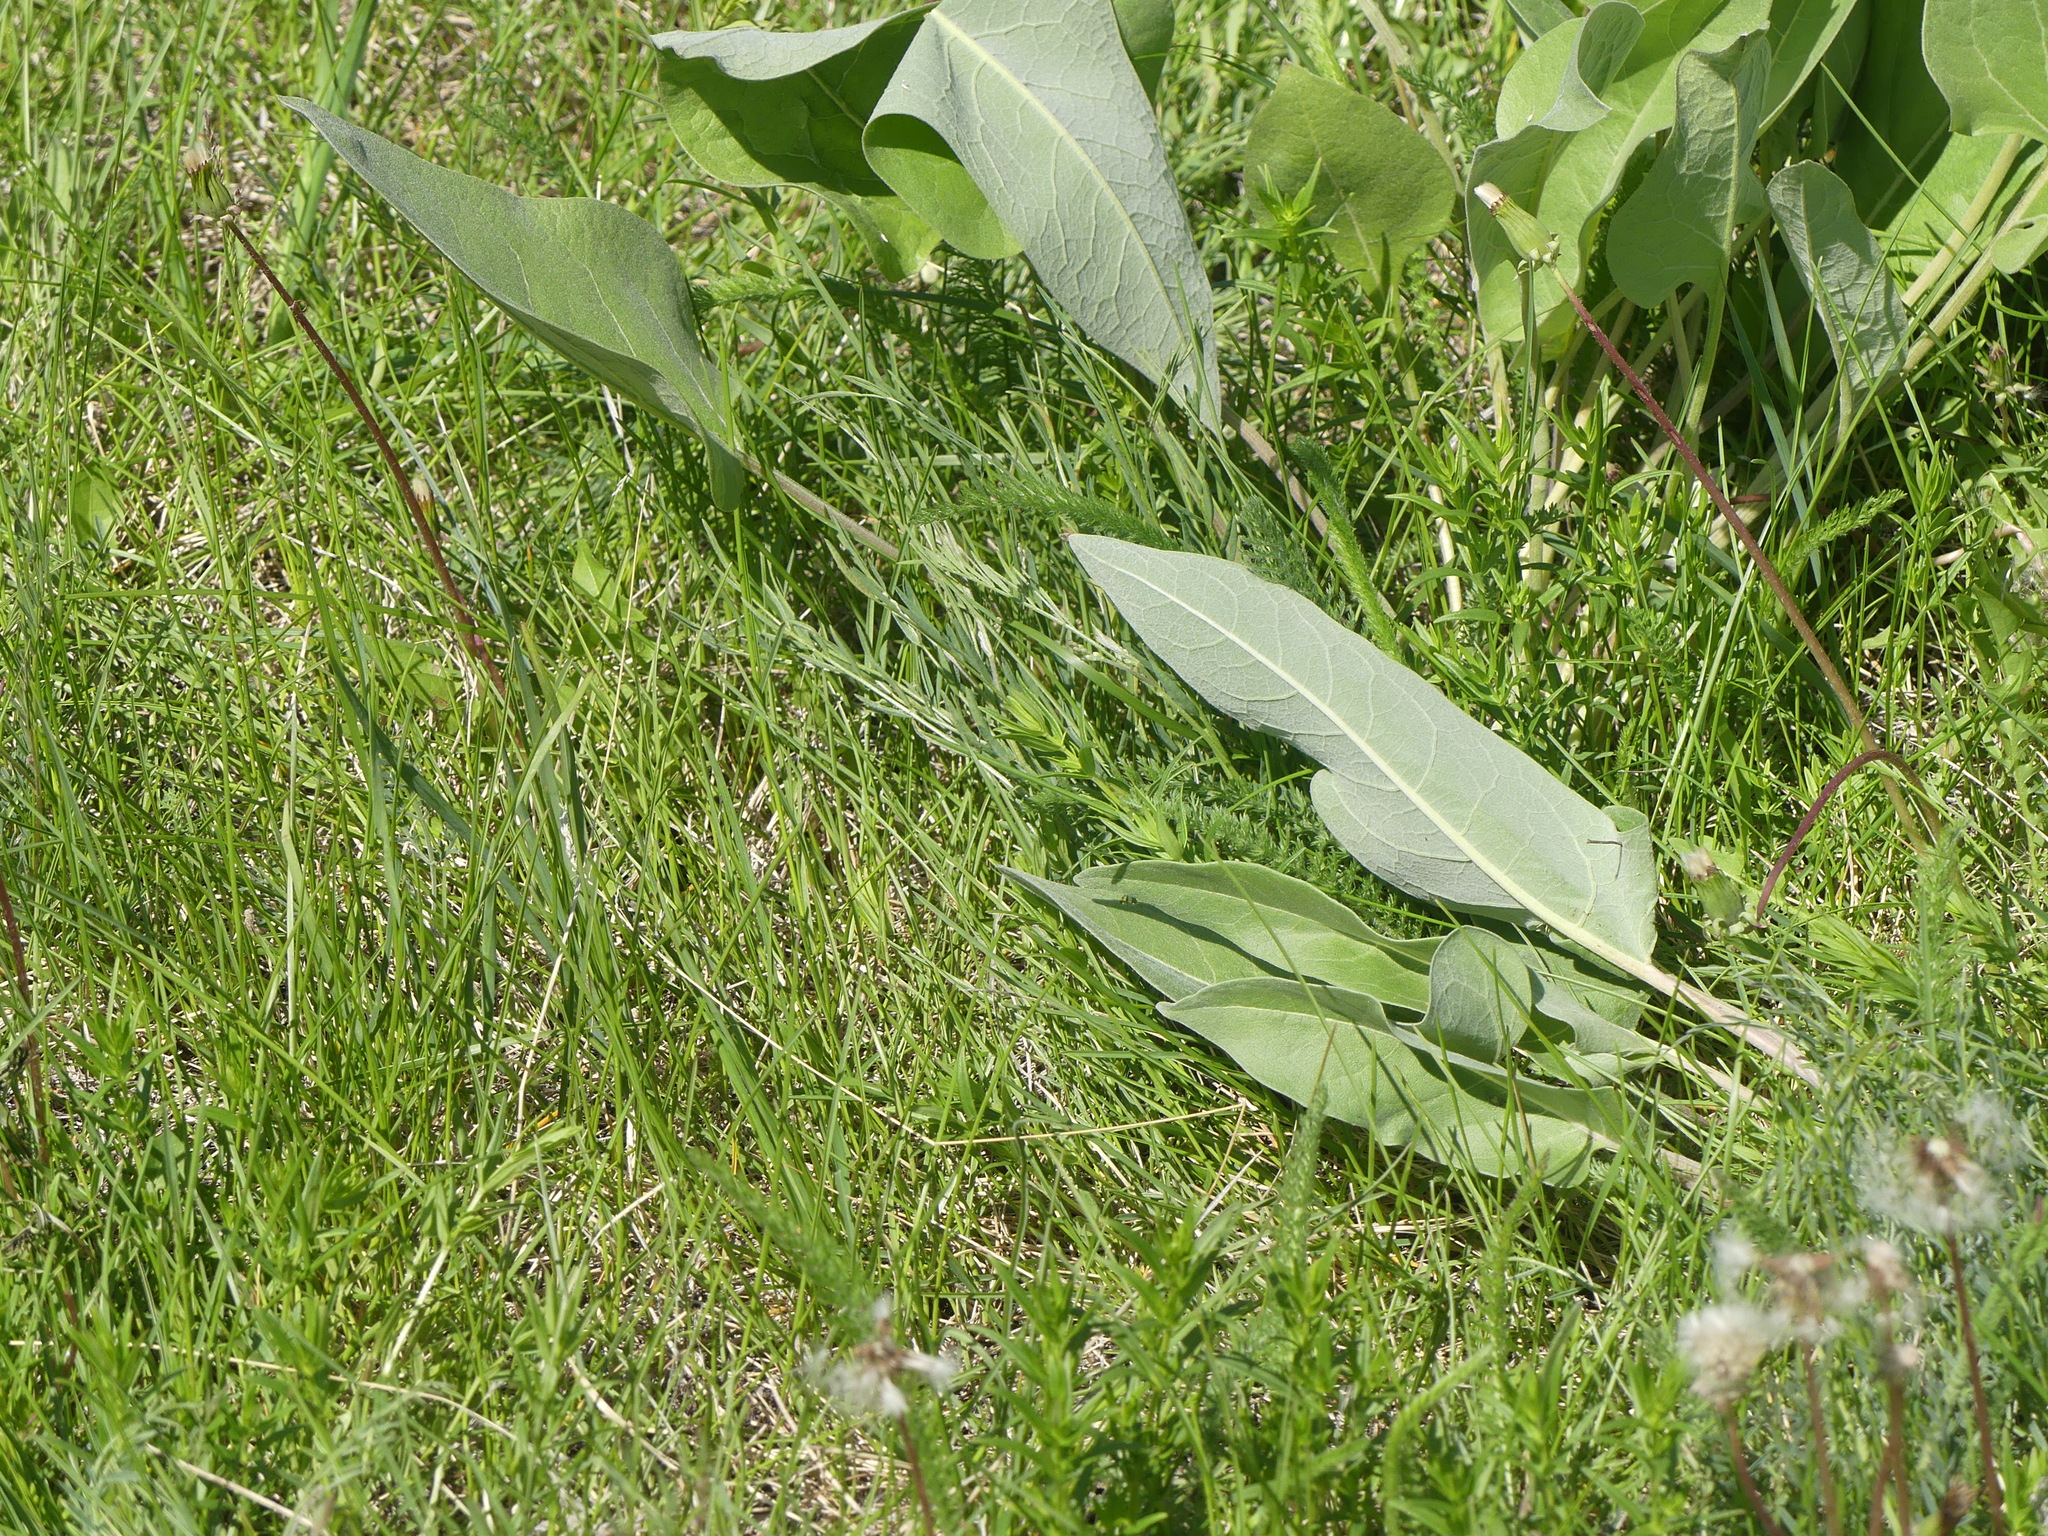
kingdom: Plantae
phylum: Tracheophyta
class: Magnoliopsida
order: Asterales
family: Asteraceae
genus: Wyethia
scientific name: Wyethia sagittata
